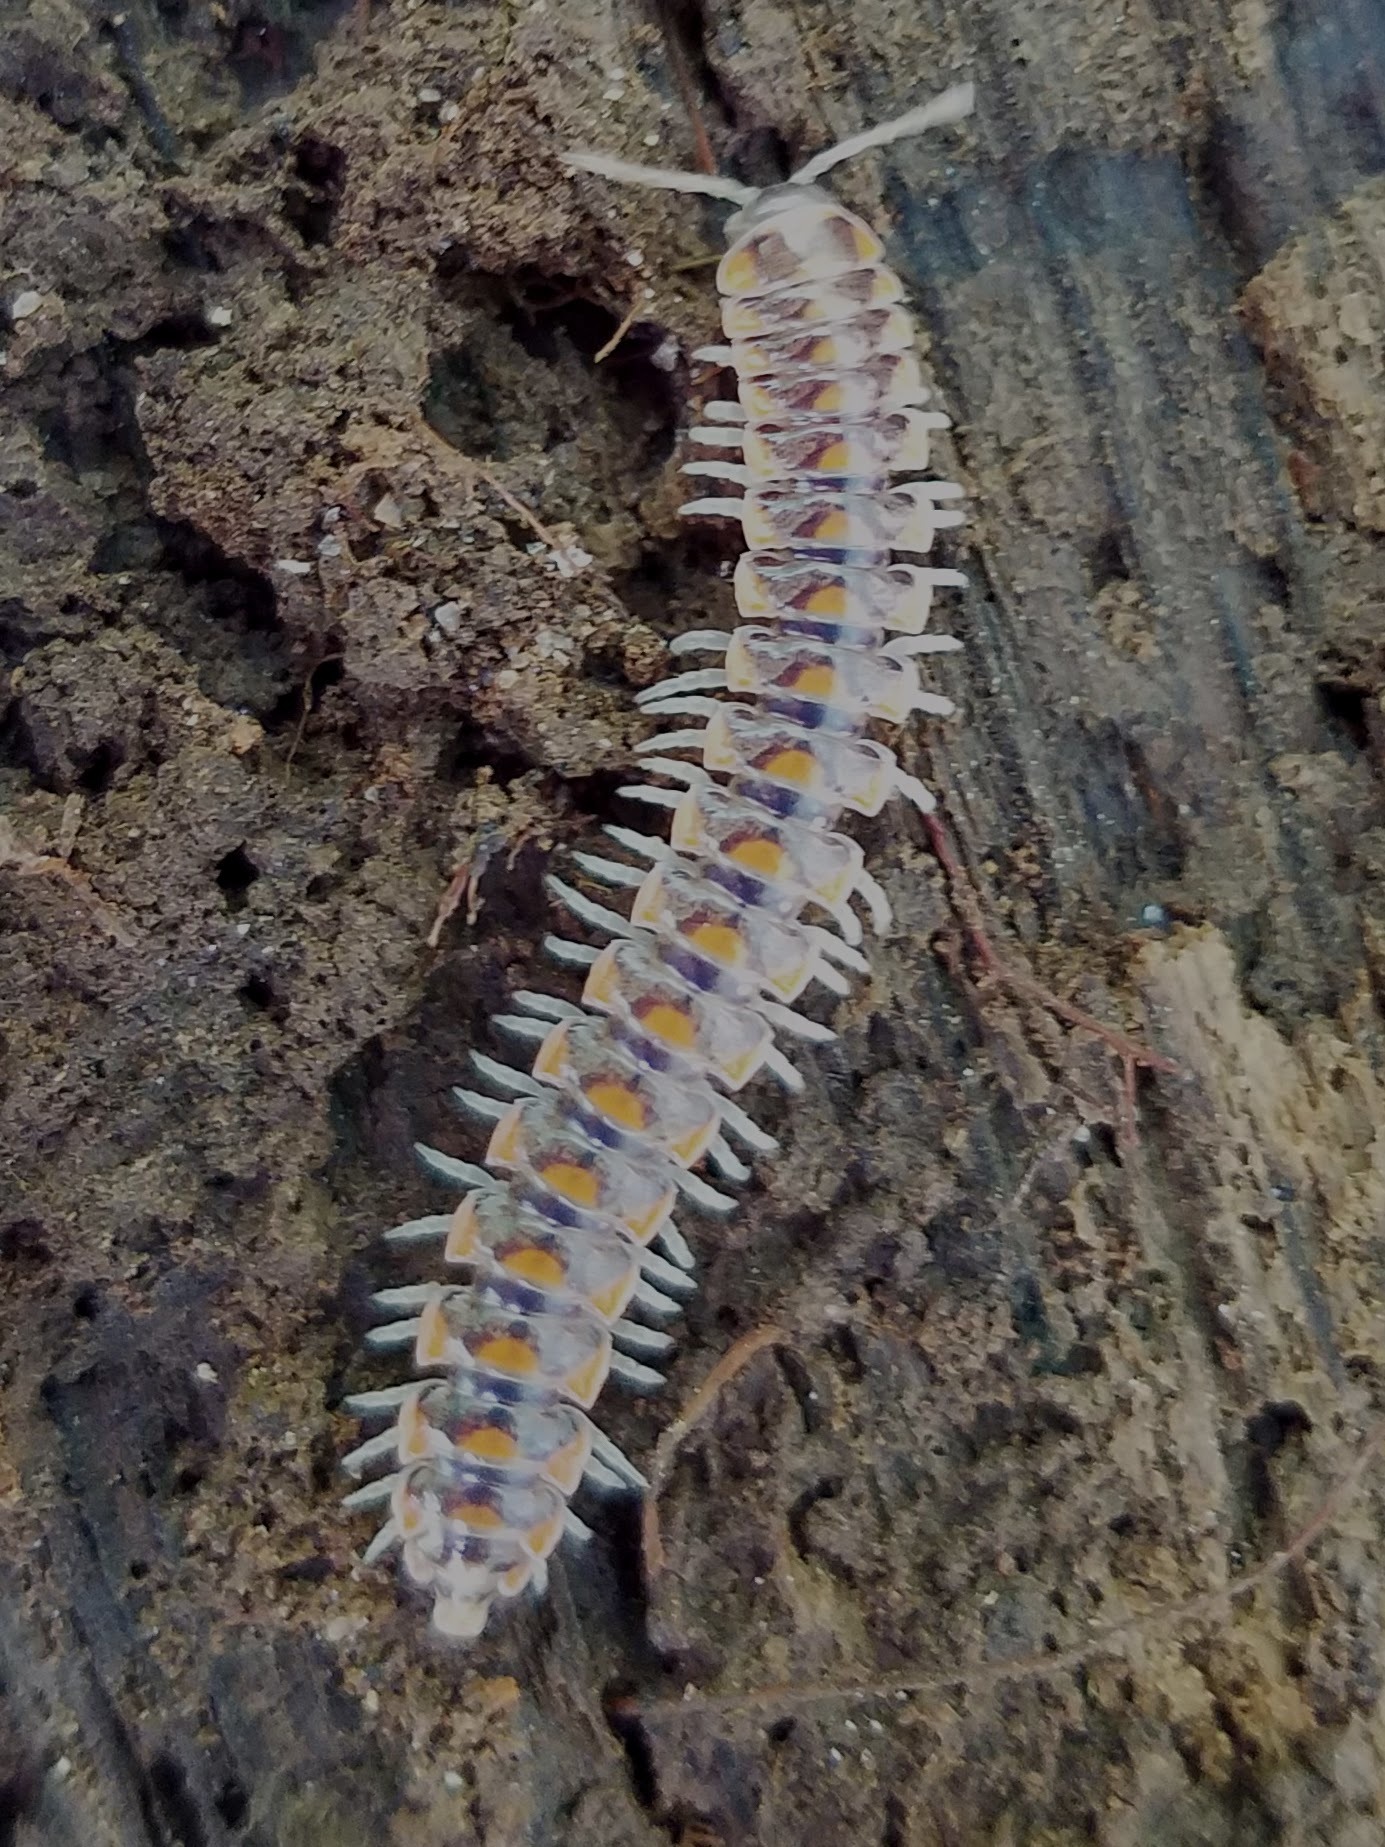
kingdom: Animalia
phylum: Arthropoda
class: Diplopoda
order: Polydesmida
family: Xystodesmidae
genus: Euryurus
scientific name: Euryurus maculatus
